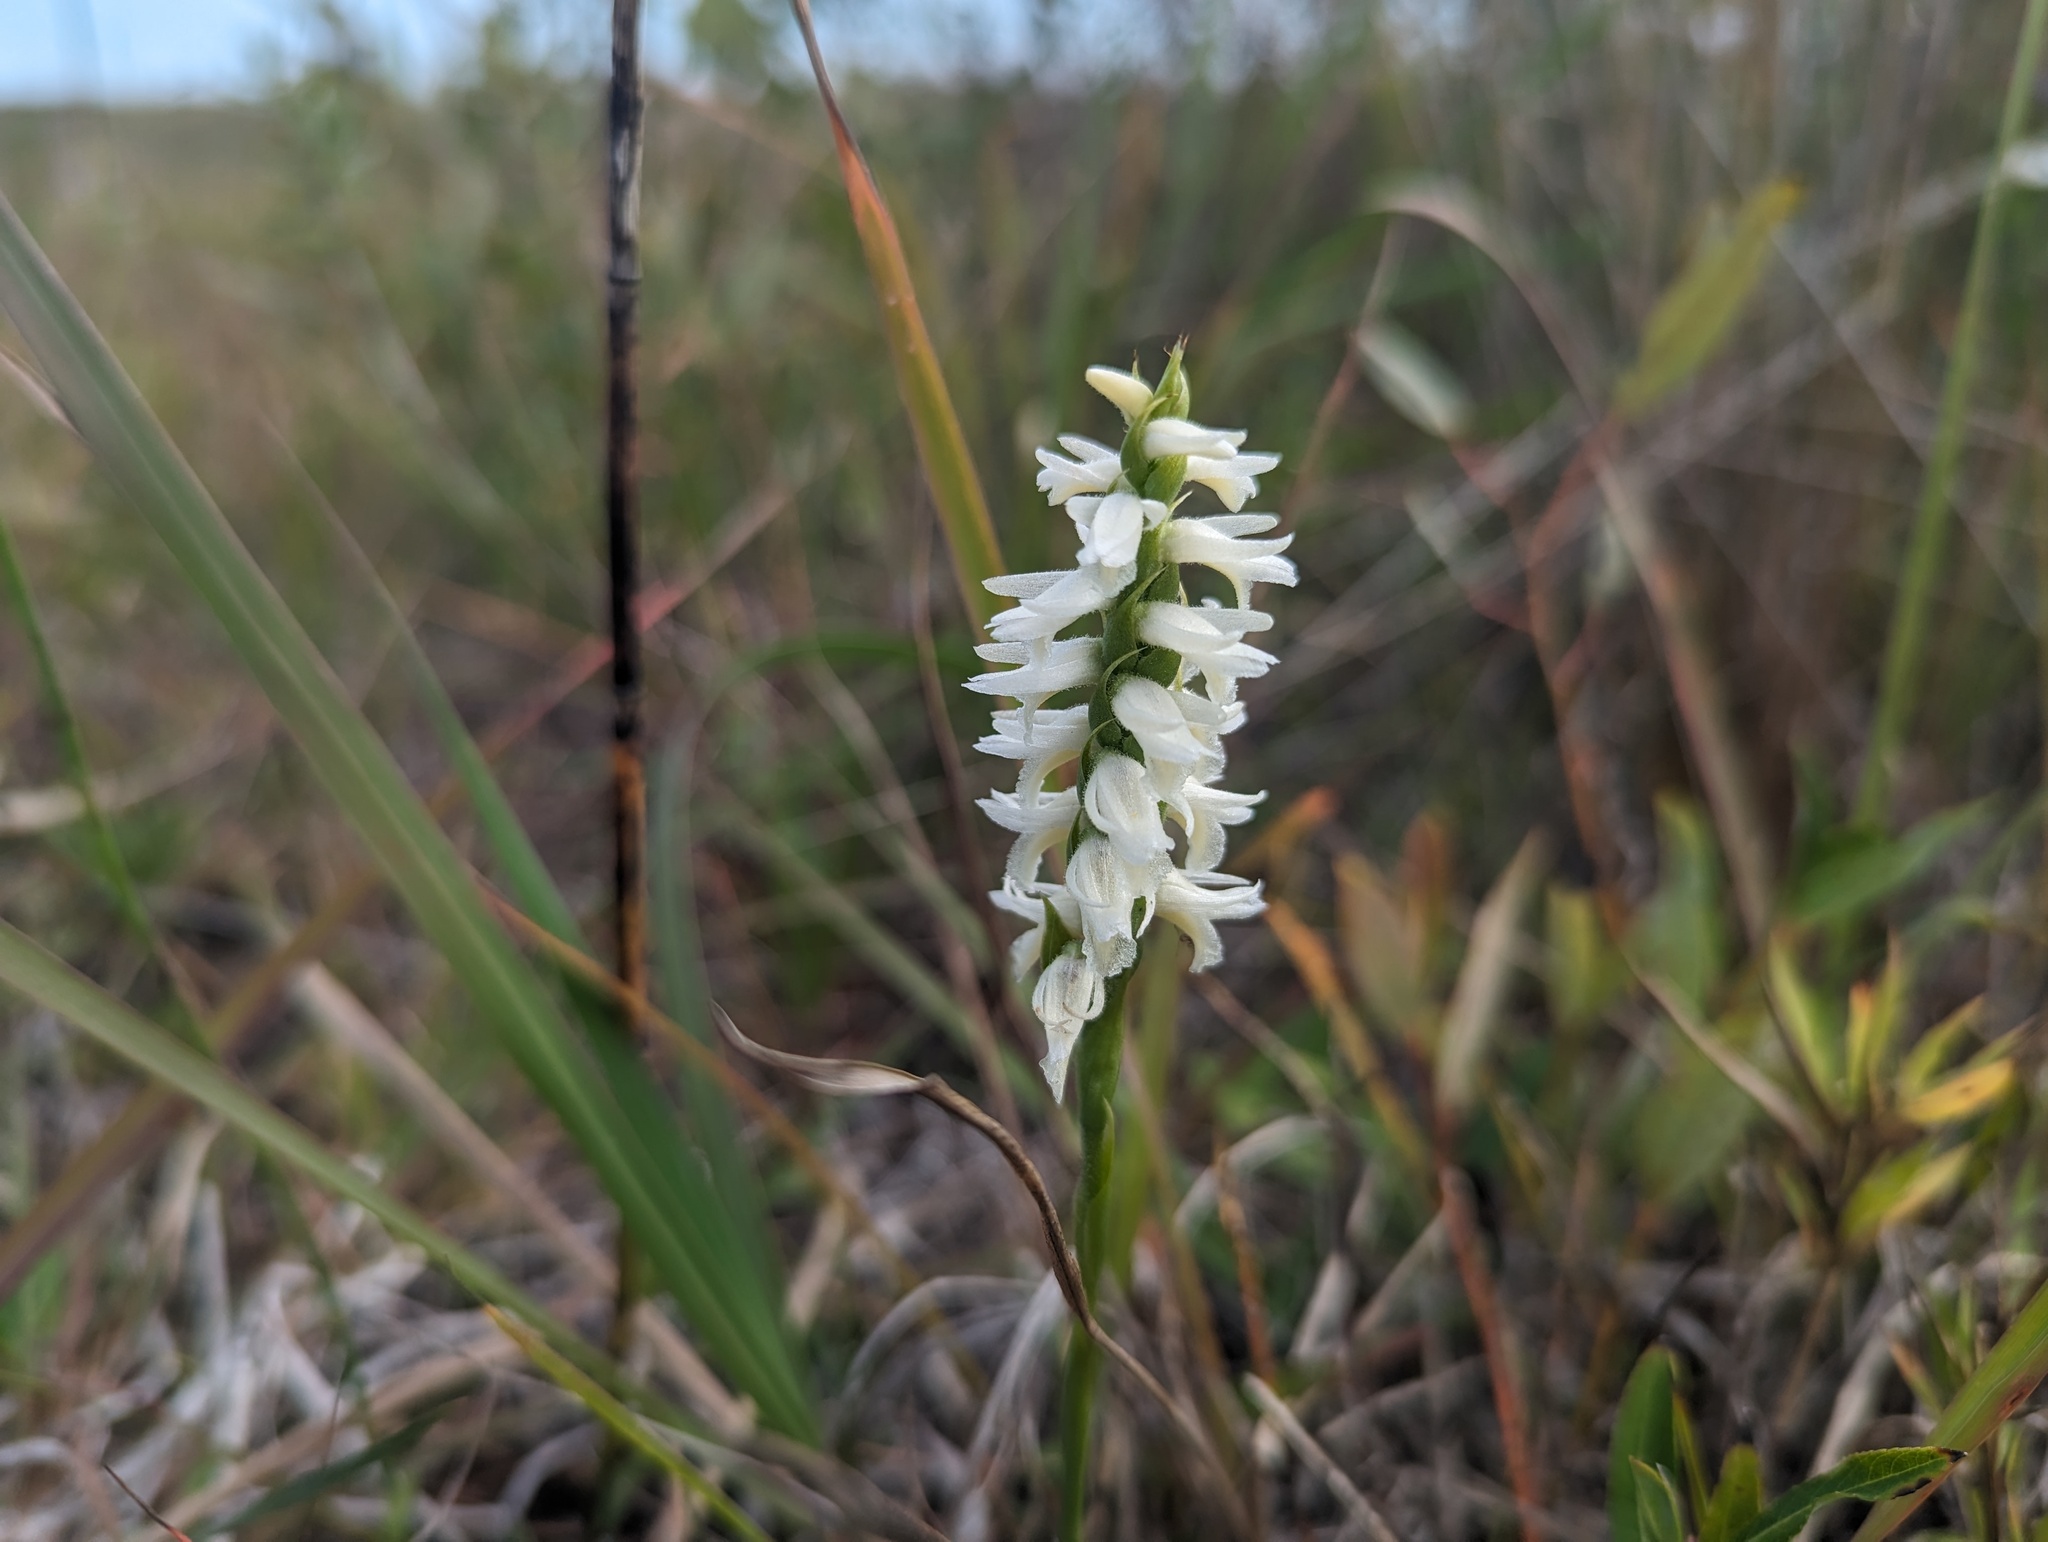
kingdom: Plantae
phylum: Tracheophyta
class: Liliopsida
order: Asparagales
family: Orchidaceae
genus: Spiranthes
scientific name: Spiranthes magnicamporum
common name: Great plains ladies'-tresses
